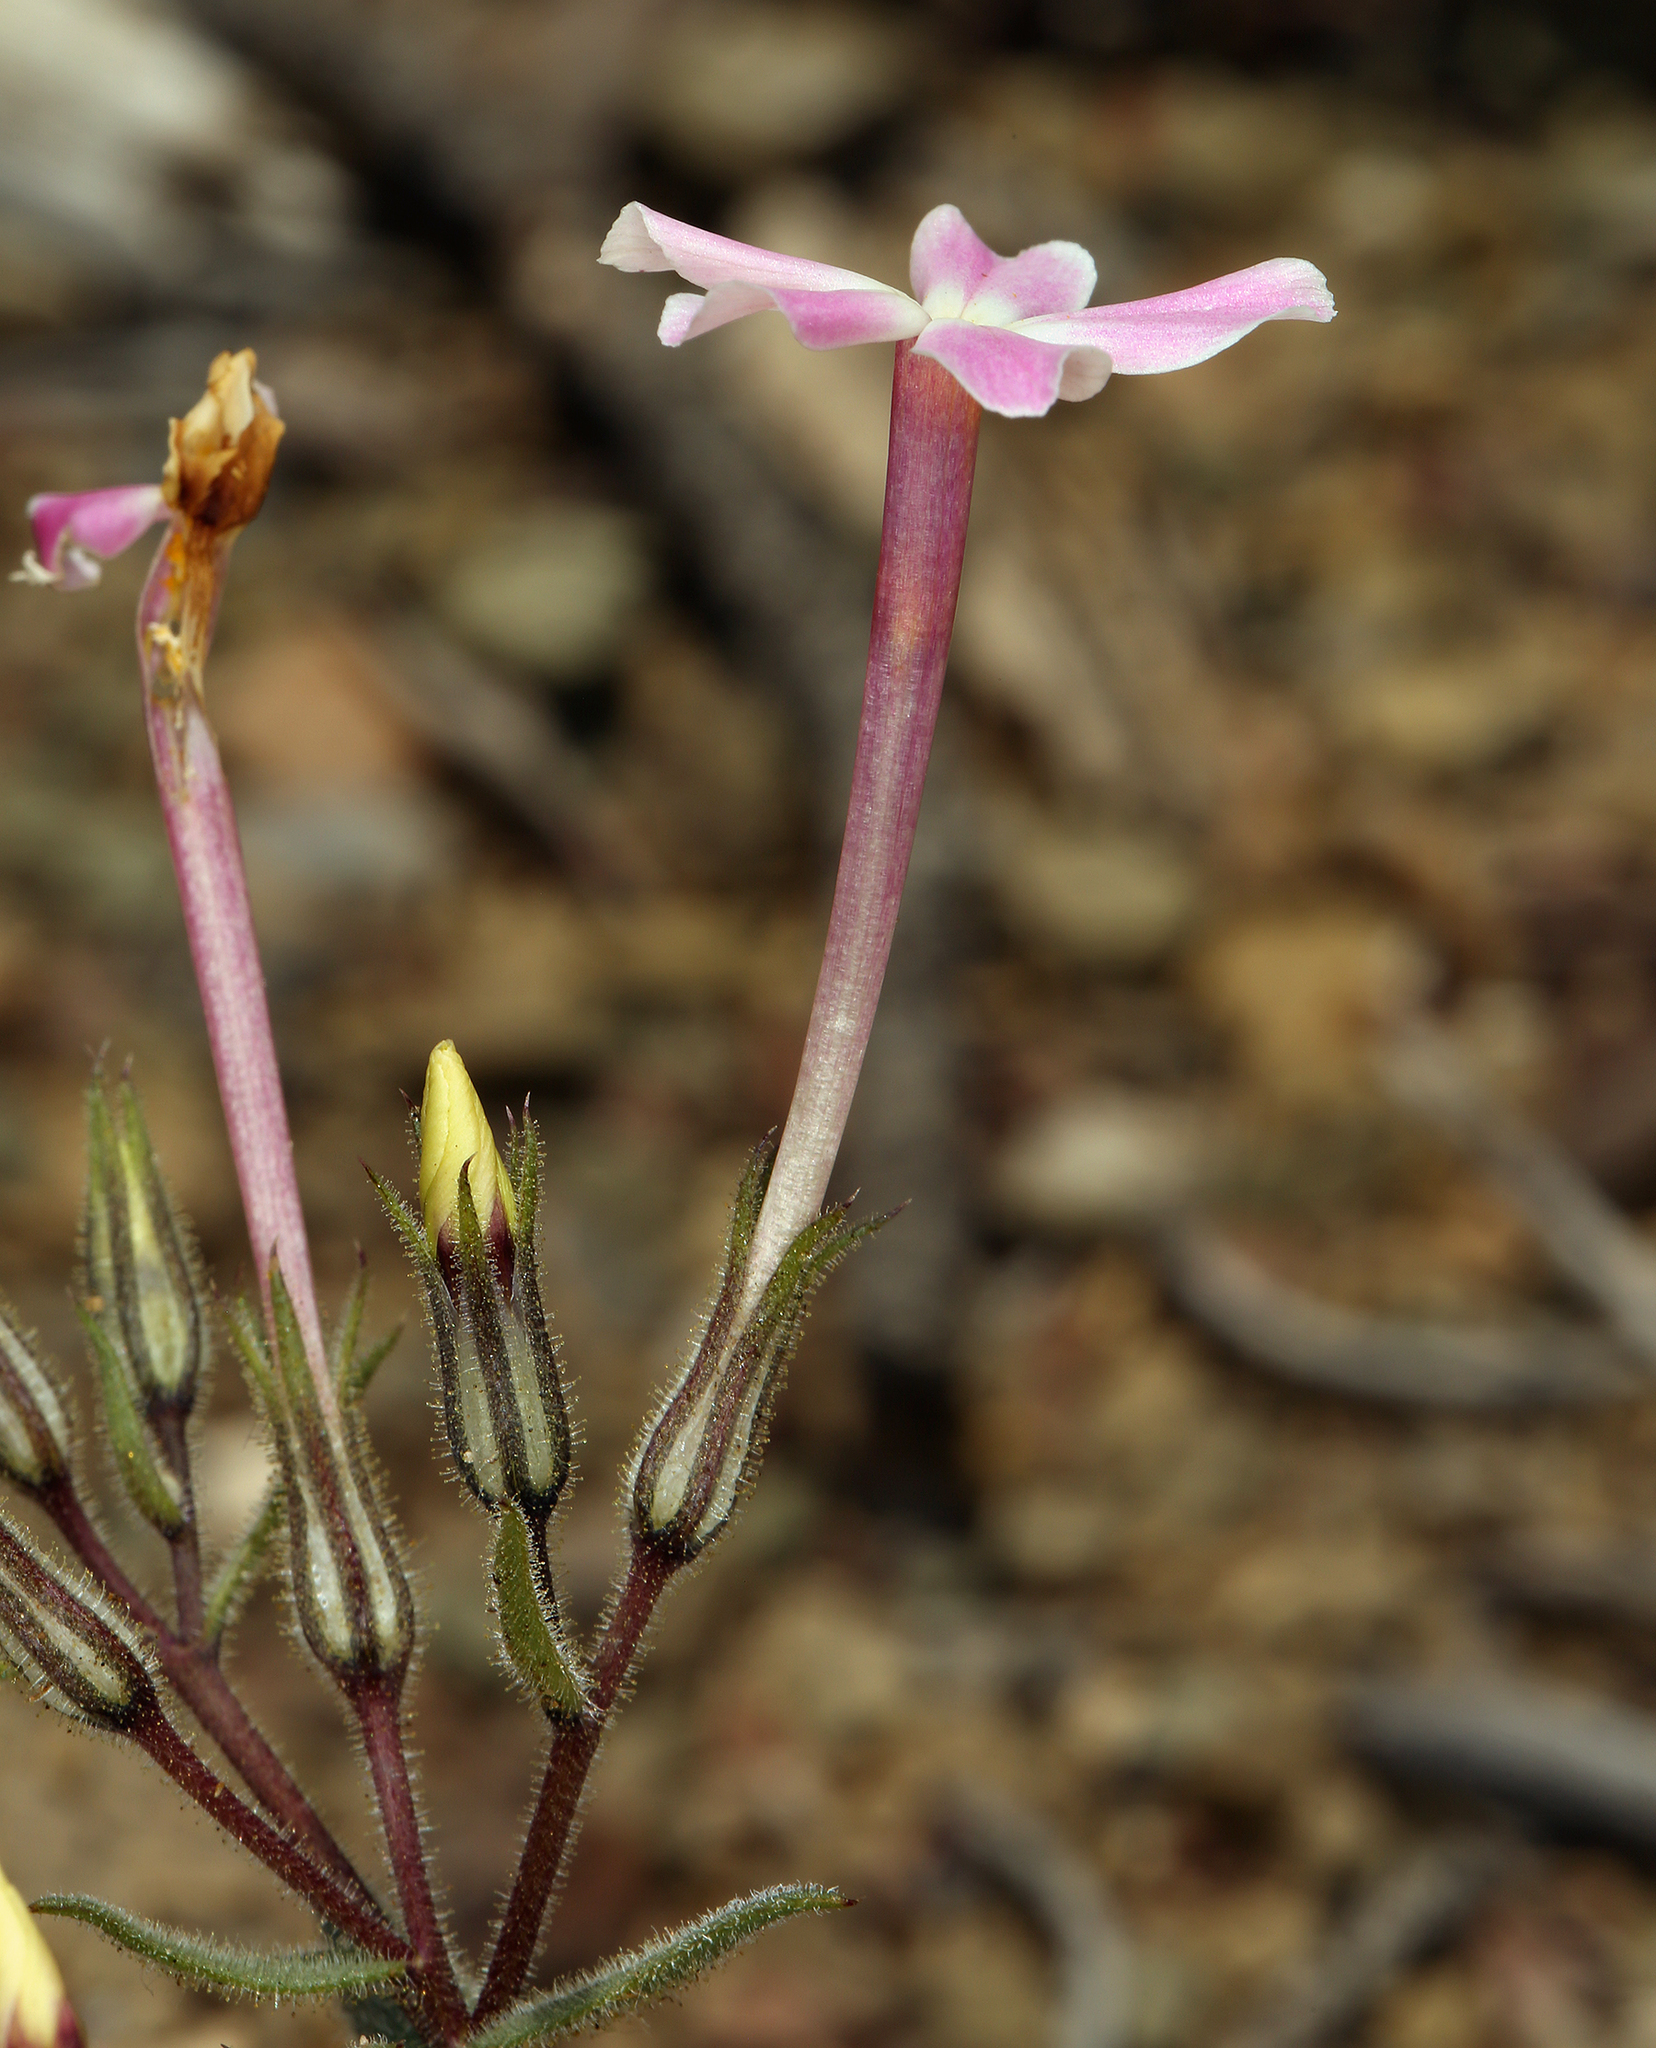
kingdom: Plantae
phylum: Tracheophyta
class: Magnoliopsida
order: Ericales
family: Polemoniaceae
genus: Phlox
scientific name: Phlox longifolia
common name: Longleaf phlox
